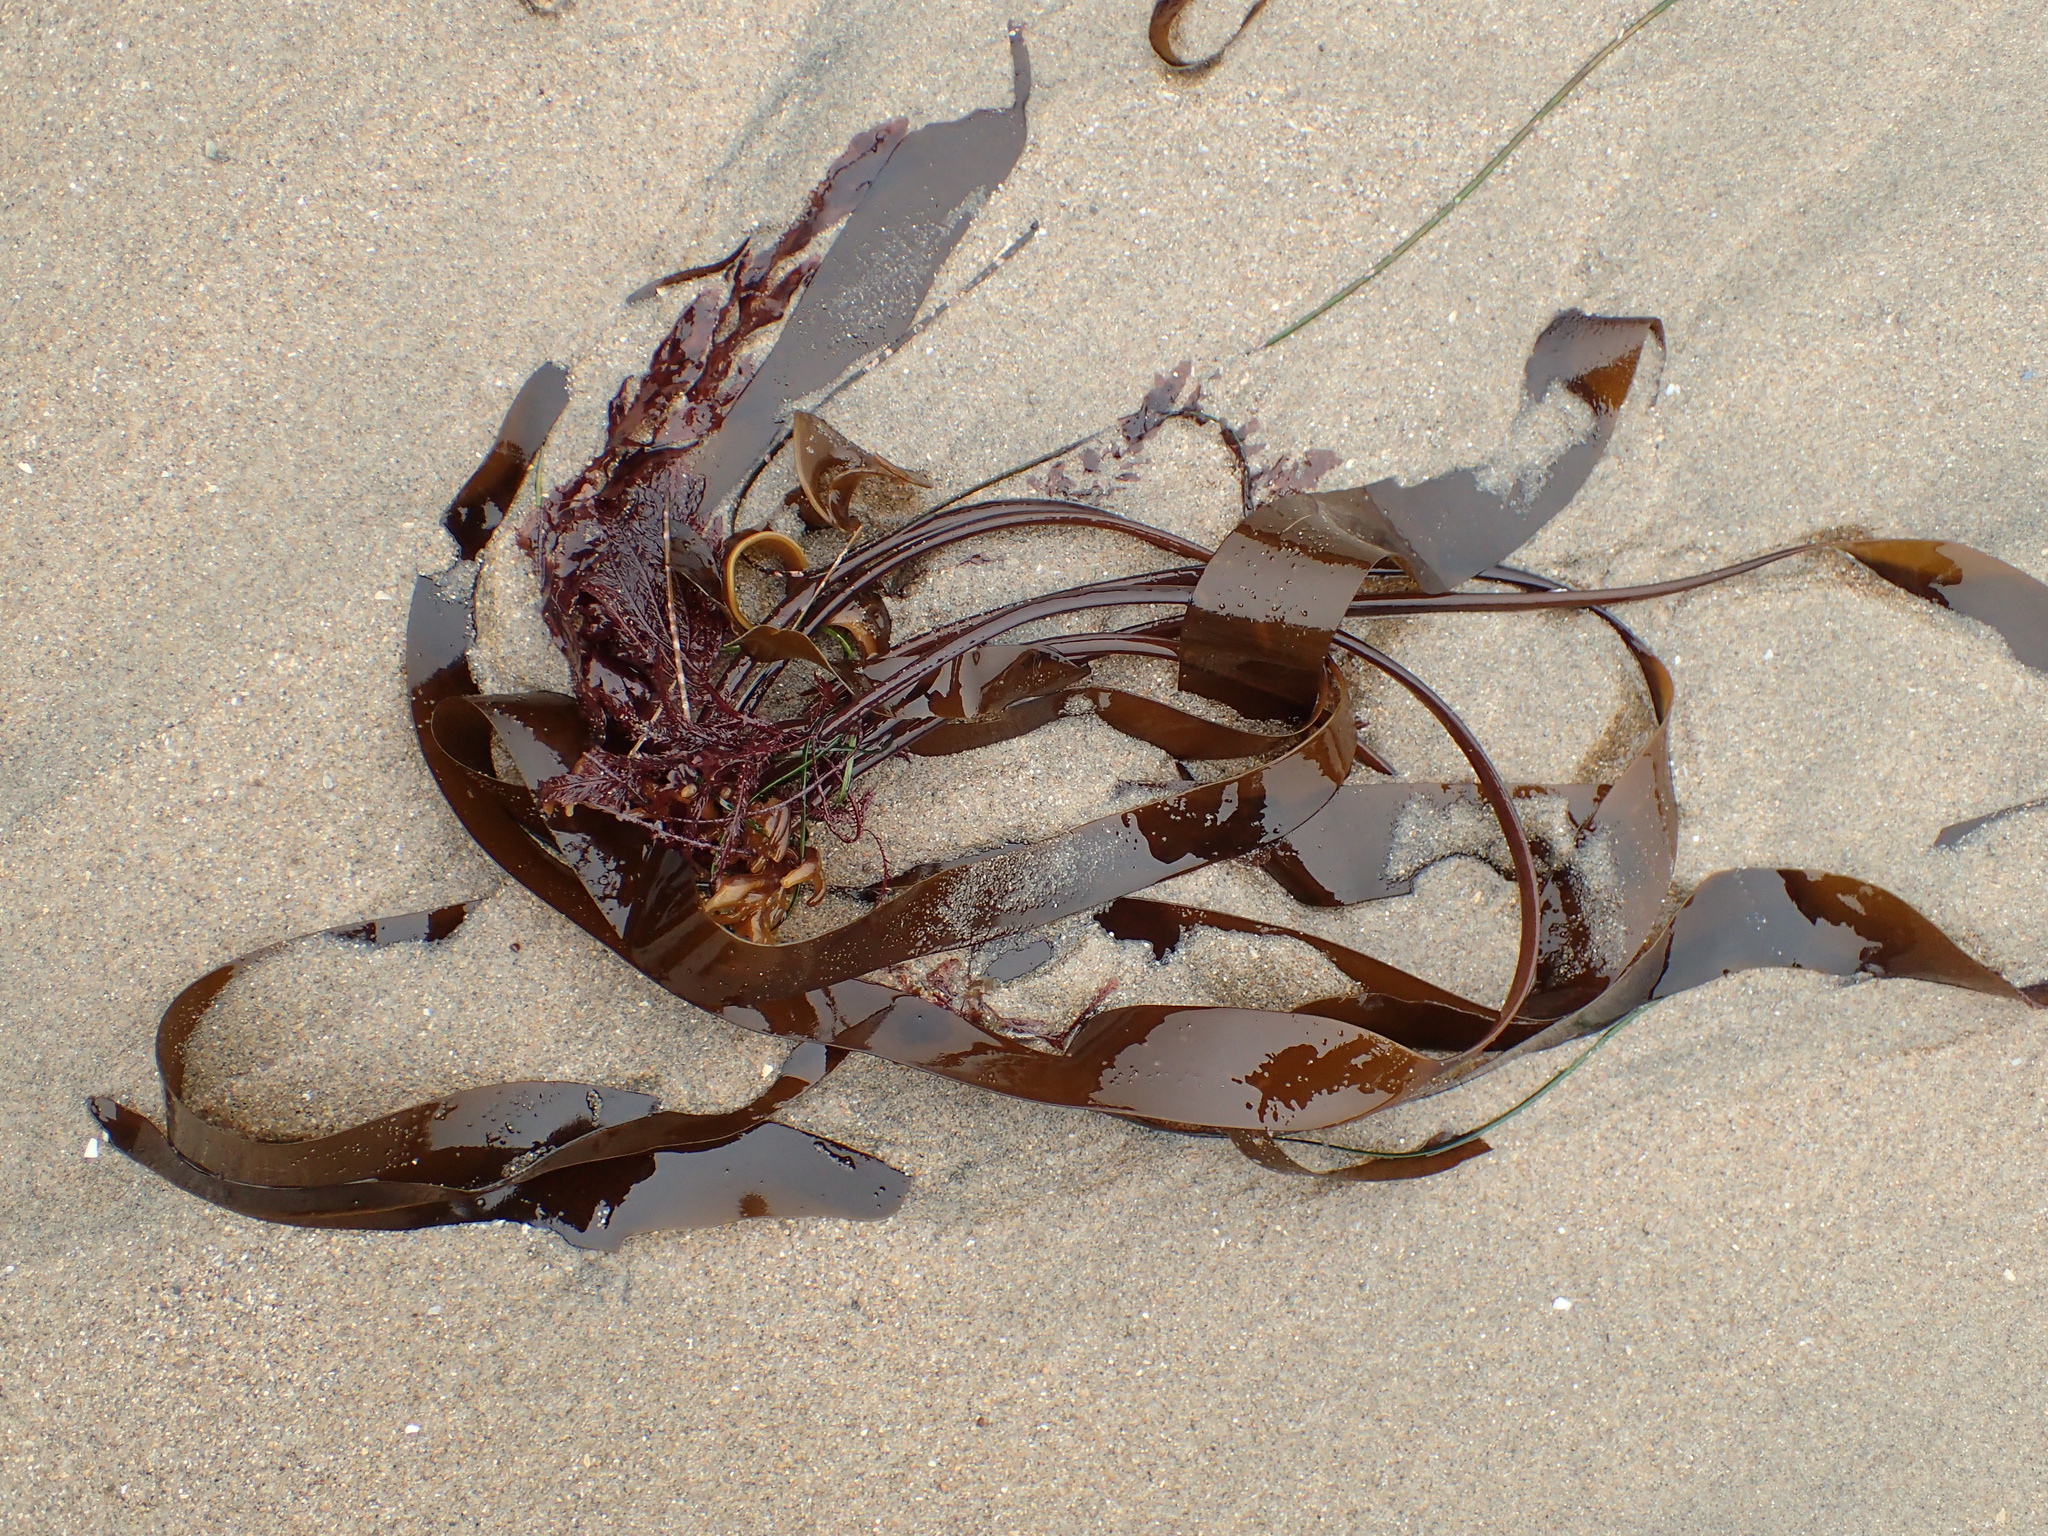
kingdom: Chromista
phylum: Ochrophyta
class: Phaeophyceae
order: Laminariales
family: Laminariaceae
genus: Laminaria
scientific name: Laminaria sinclairii
